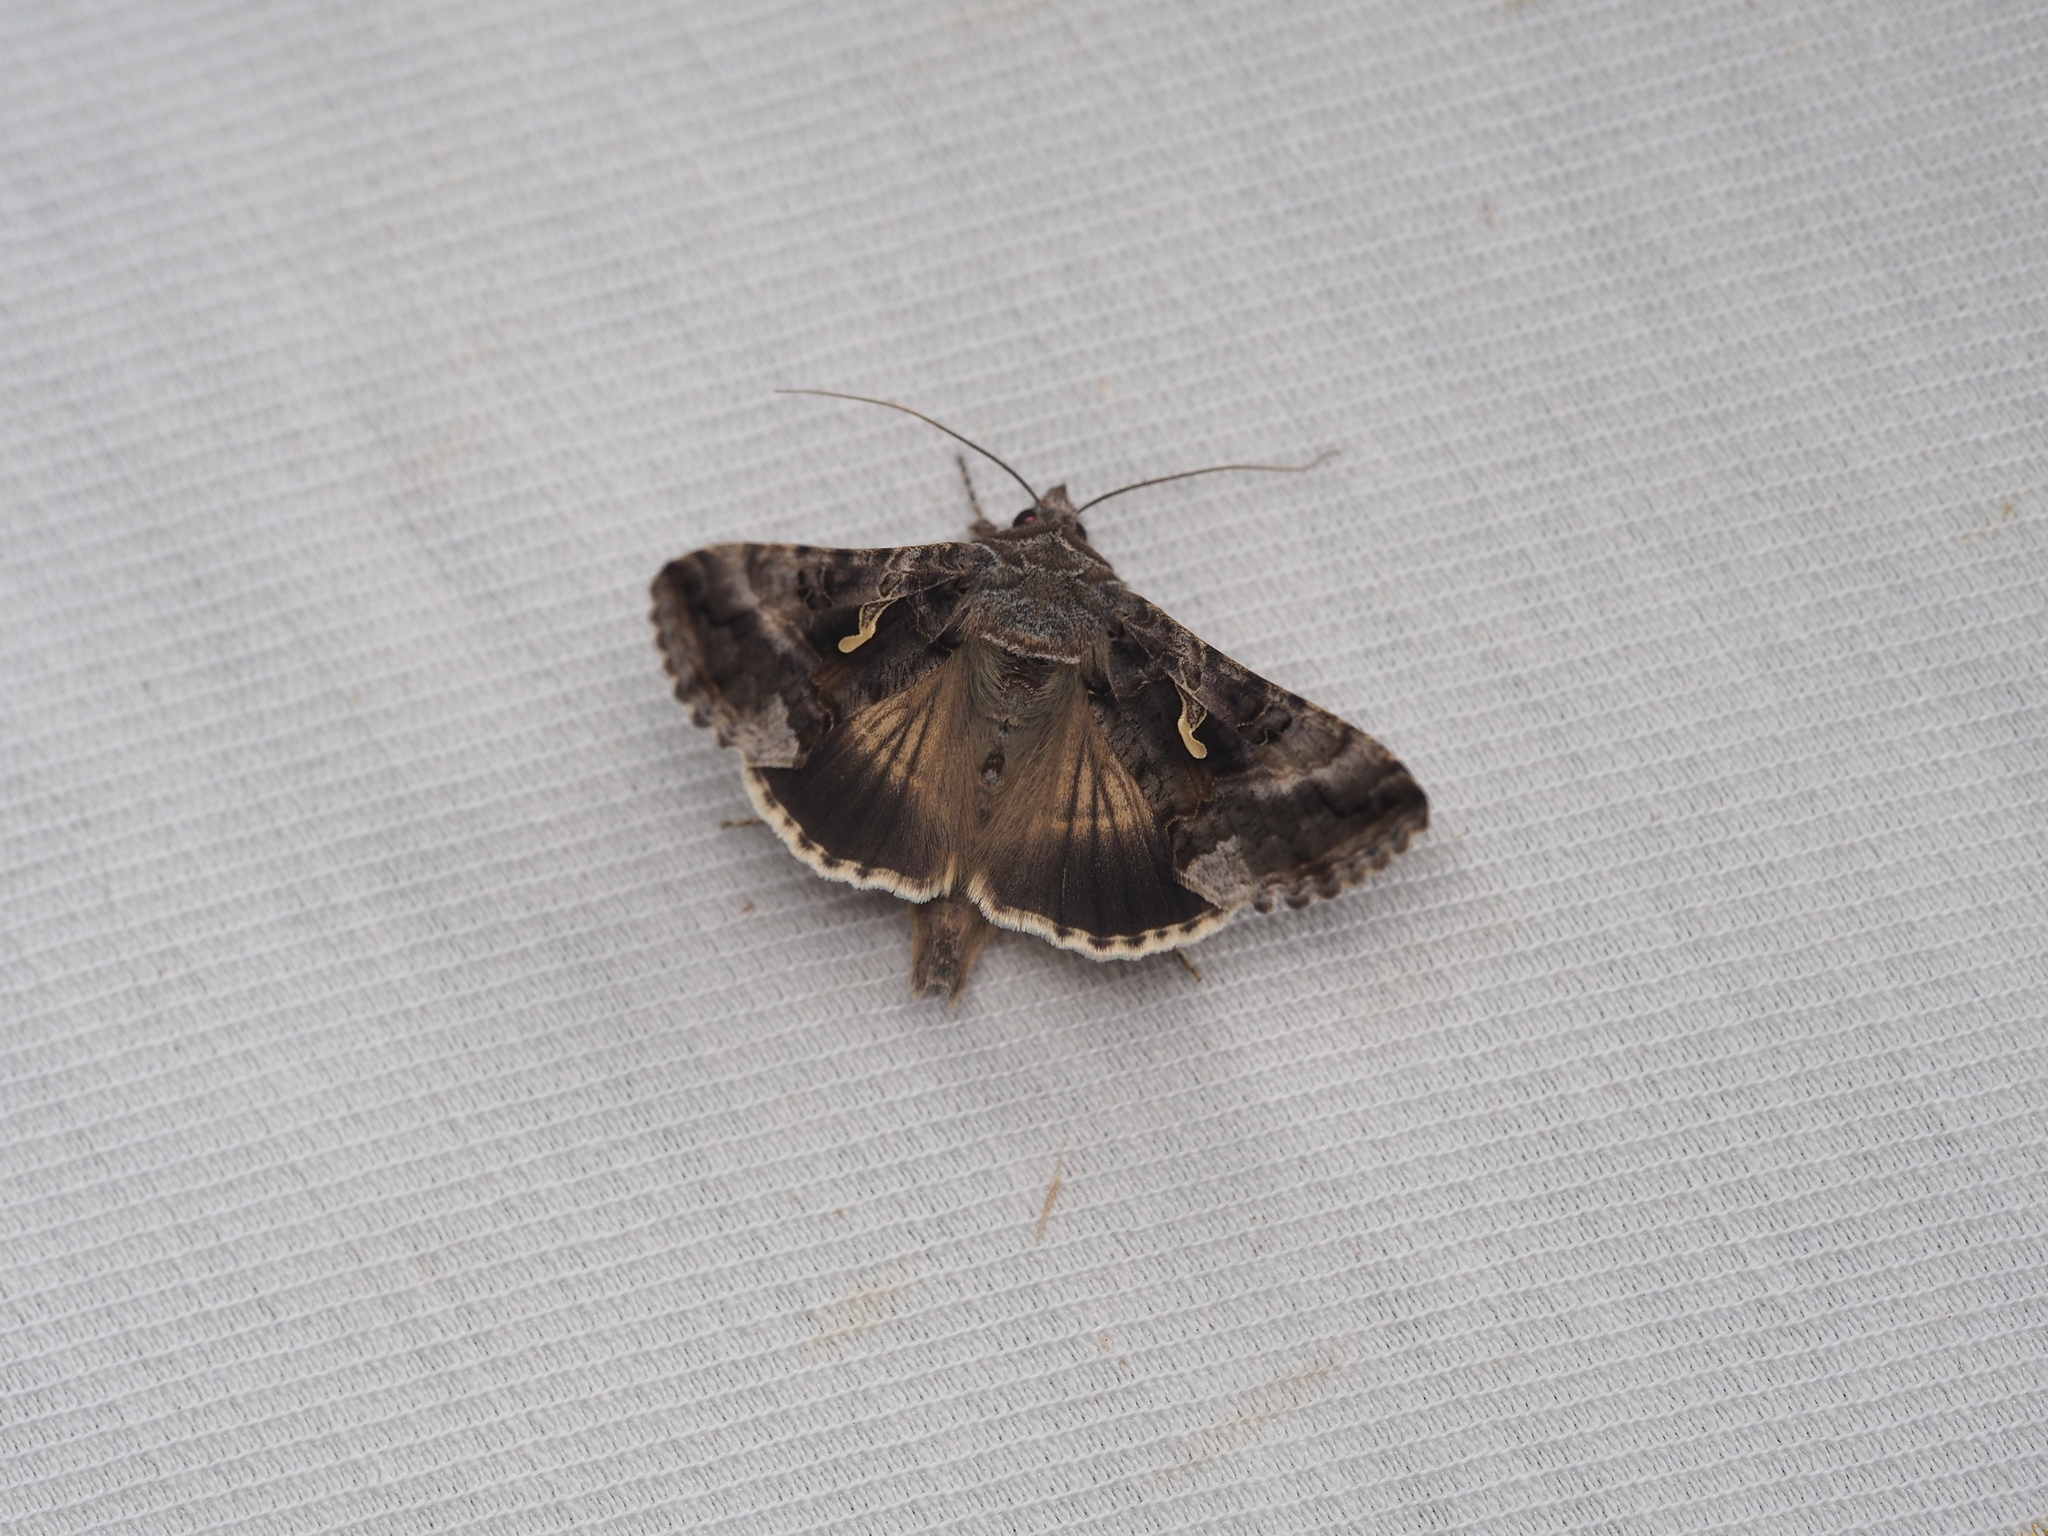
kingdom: Animalia
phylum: Arthropoda
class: Insecta
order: Lepidoptera
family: Noctuidae
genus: Autographa
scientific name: Autographa gamma
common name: Silver y
